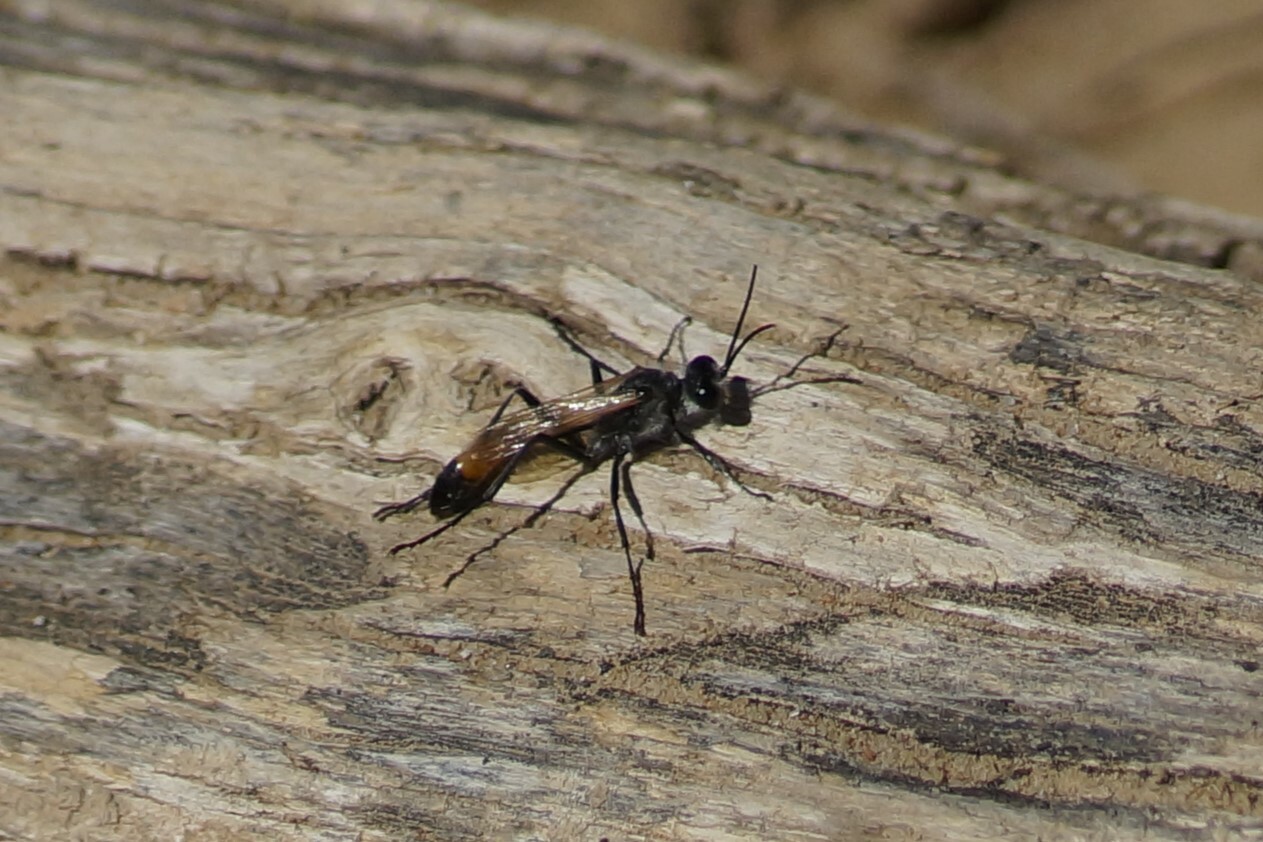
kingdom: Animalia
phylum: Arthropoda
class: Insecta
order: Hymenoptera
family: Sphecidae
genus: Podalonia
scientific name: Podalonia tydei
